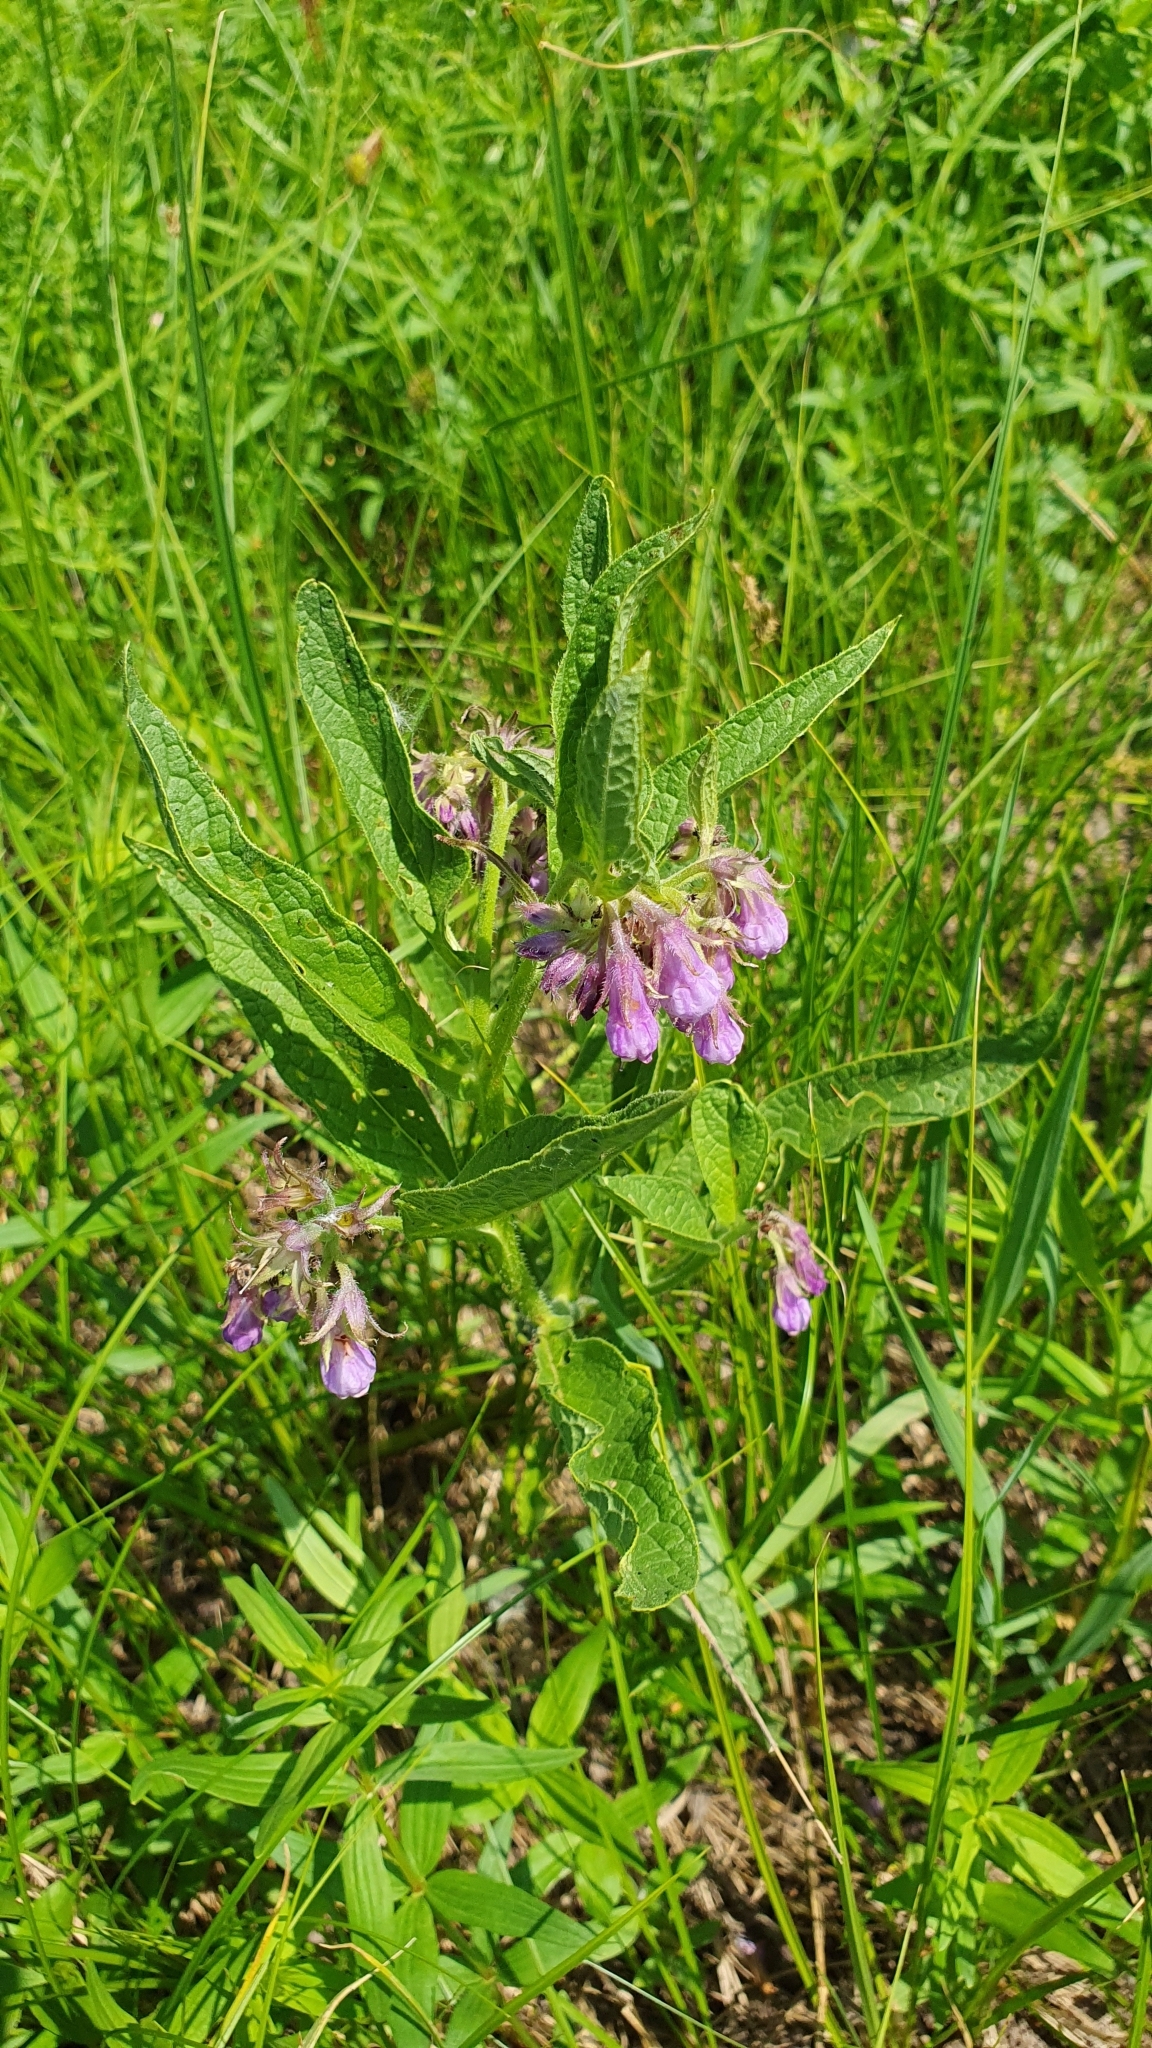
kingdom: Plantae
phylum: Tracheophyta
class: Magnoliopsida
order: Boraginales
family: Boraginaceae
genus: Symphytum
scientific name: Symphytum officinale
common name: Common comfrey
